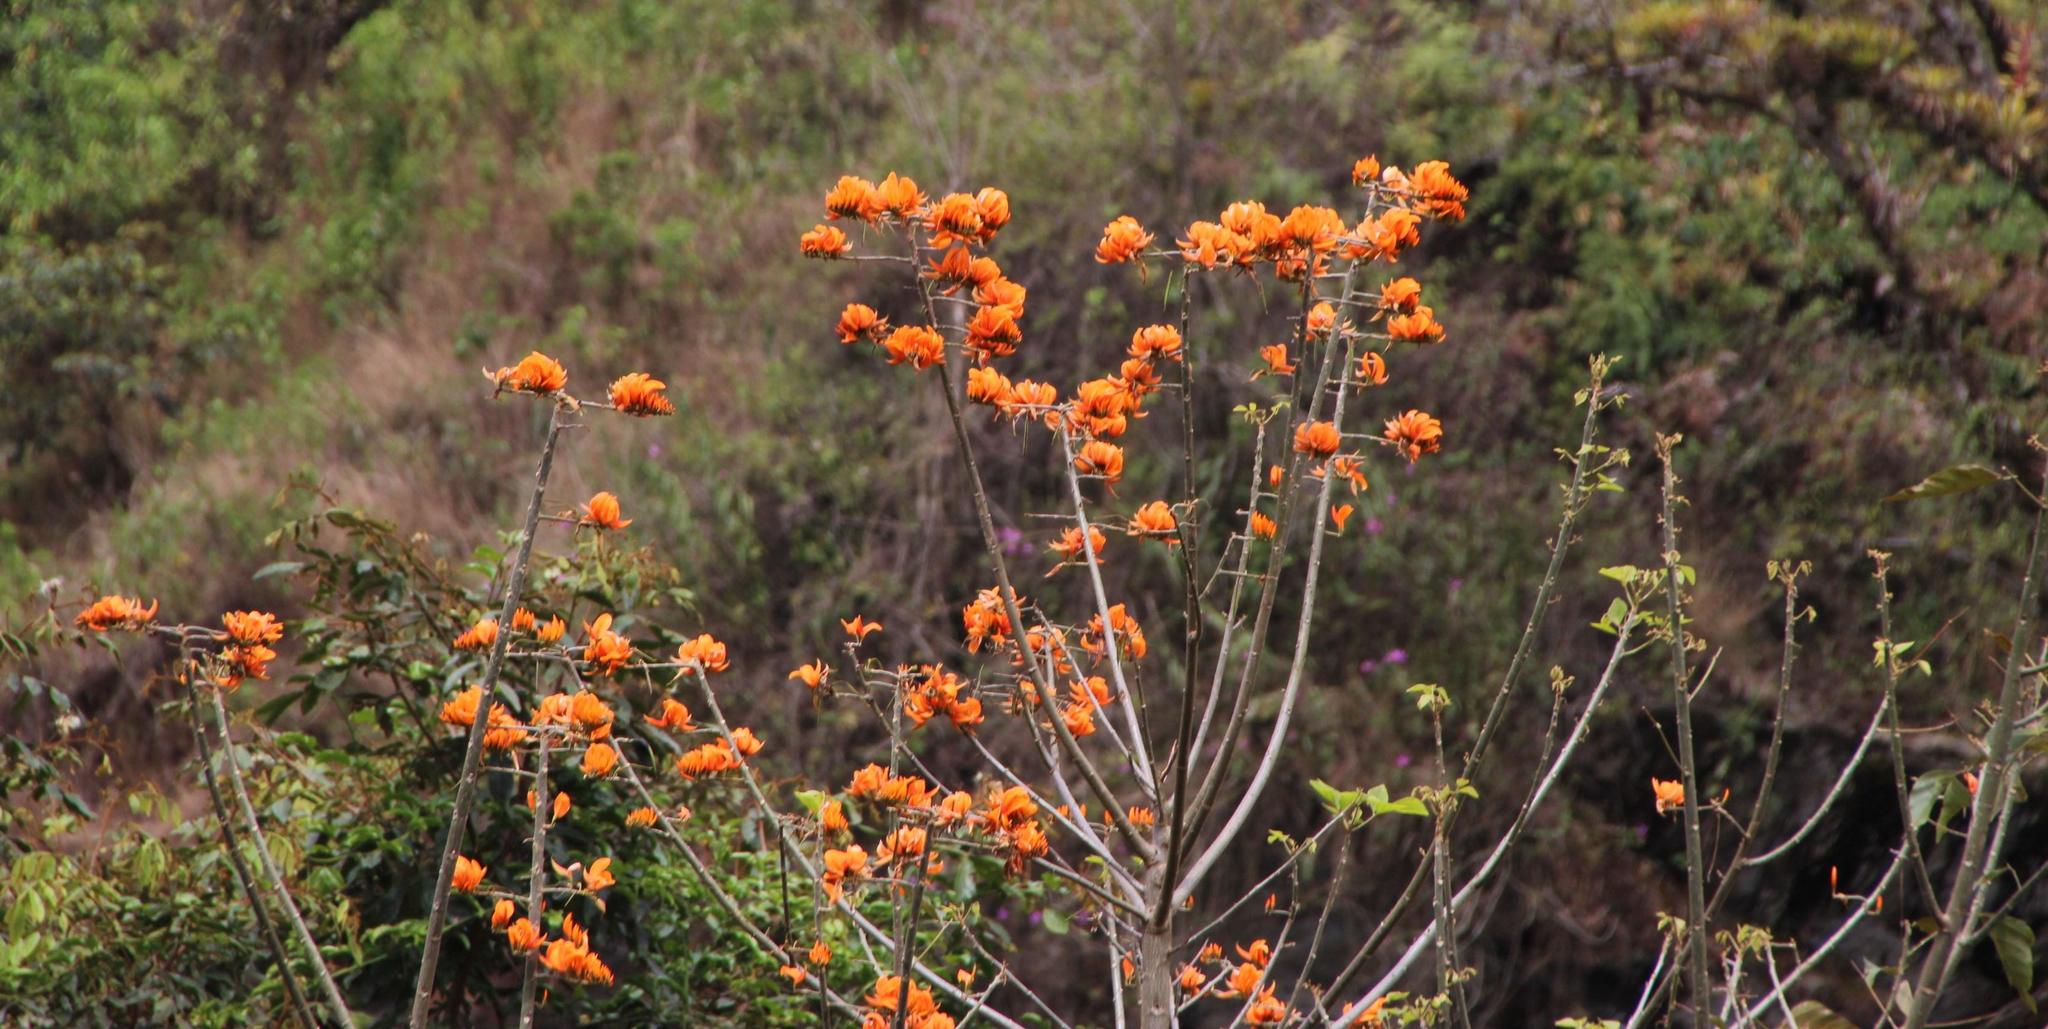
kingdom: Plantae
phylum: Tracheophyta
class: Magnoliopsida
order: Fabales
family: Fabaceae
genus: Erythrina
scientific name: Erythrina poeppigiana
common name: Coral tree
